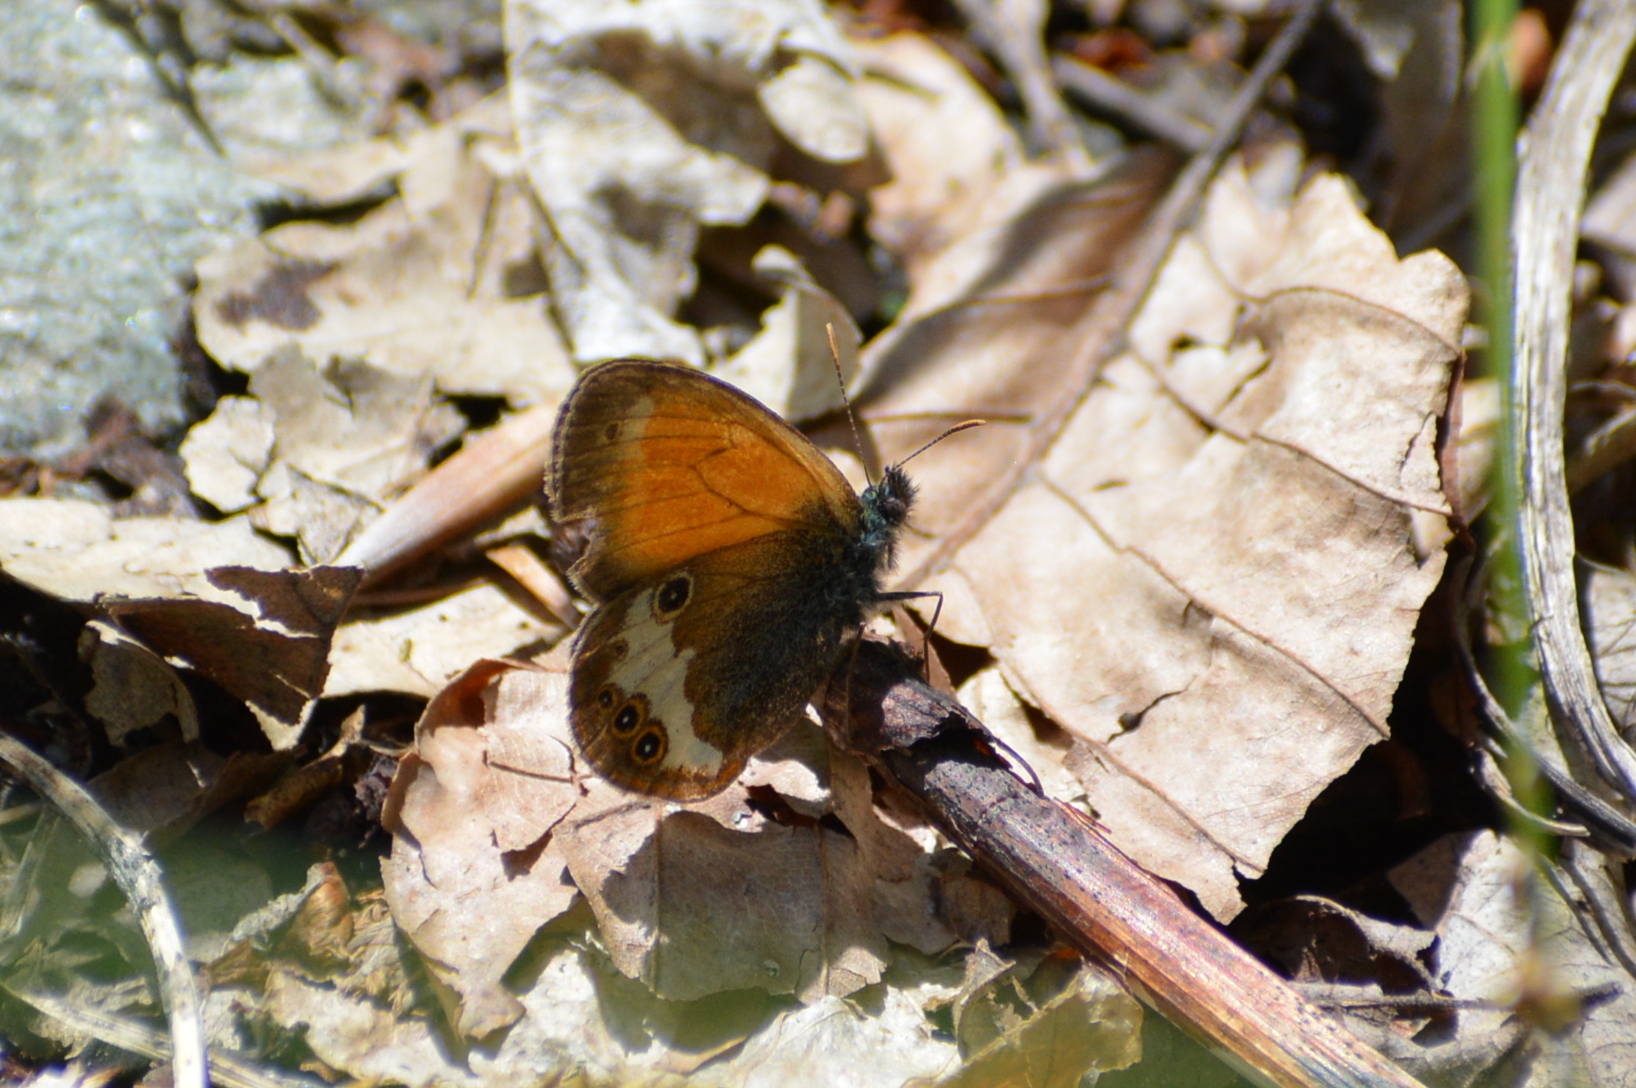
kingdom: Animalia
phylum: Arthropoda
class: Insecta
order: Lepidoptera
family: Nymphalidae
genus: Coenonympha
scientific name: Coenonympha arcania
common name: Pearly heath
